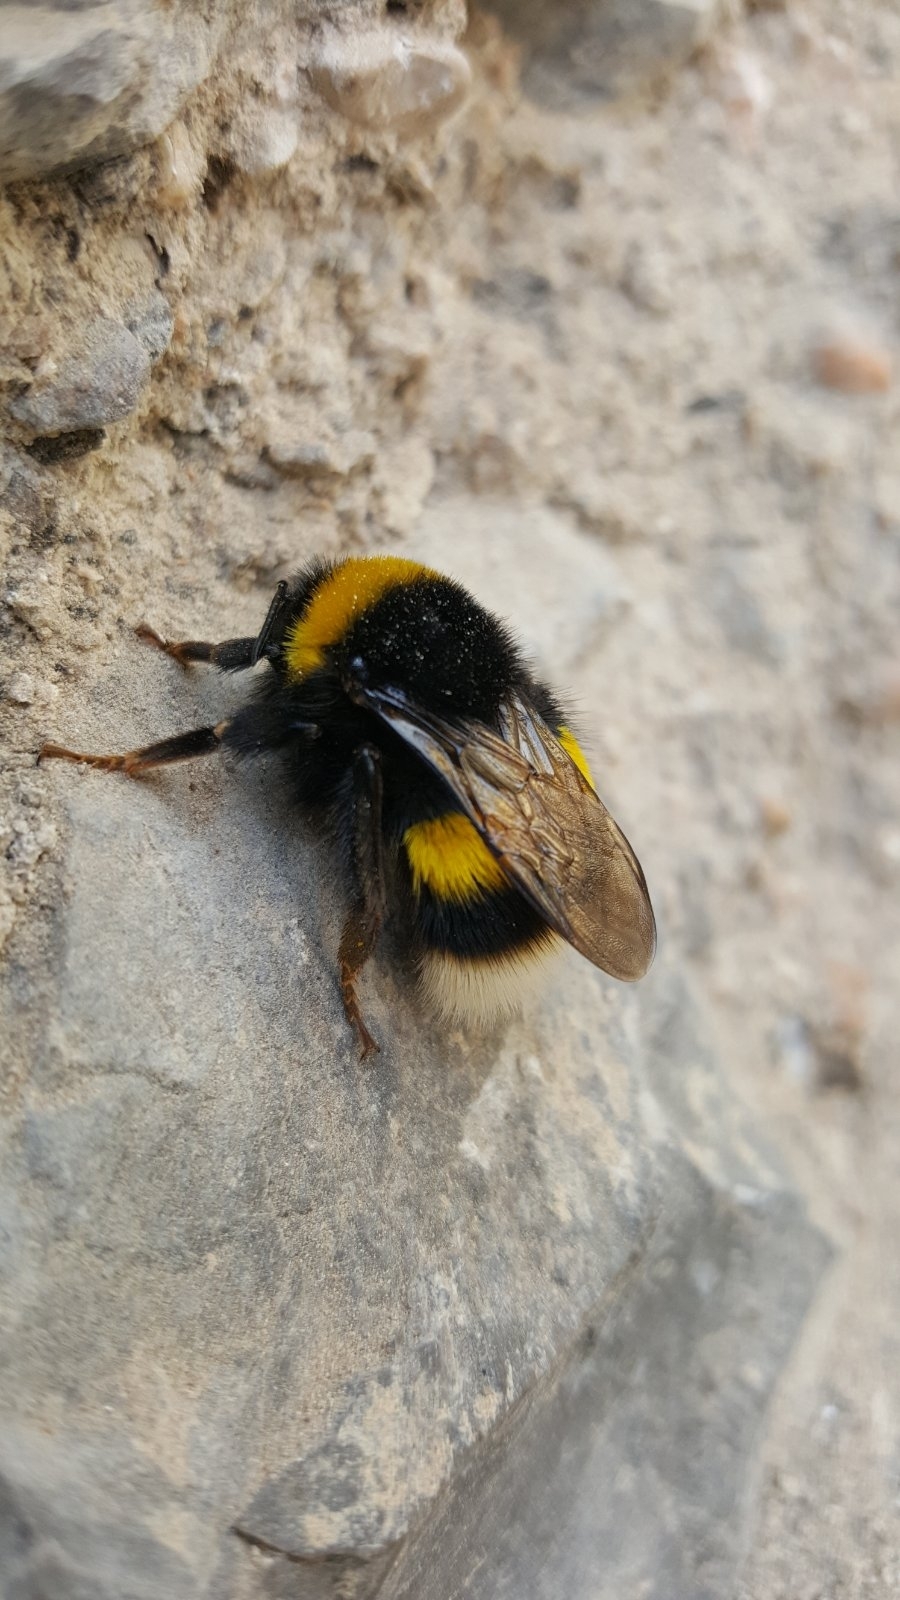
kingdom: Animalia
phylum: Arthropoda
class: Insecta
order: Hymenoptera
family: Apidae
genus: Bombus
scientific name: Bombus terrestris
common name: Buff-tailed bumblebee
